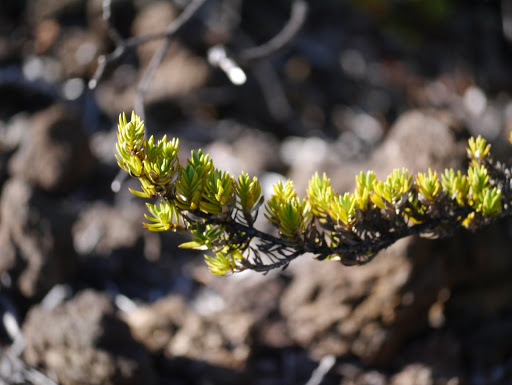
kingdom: Plantae
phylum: Tracheophyta
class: Magnoliopsida
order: Ericales
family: Ericaceae
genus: Leptecophylla
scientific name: Leptecophylla tameiameiae
